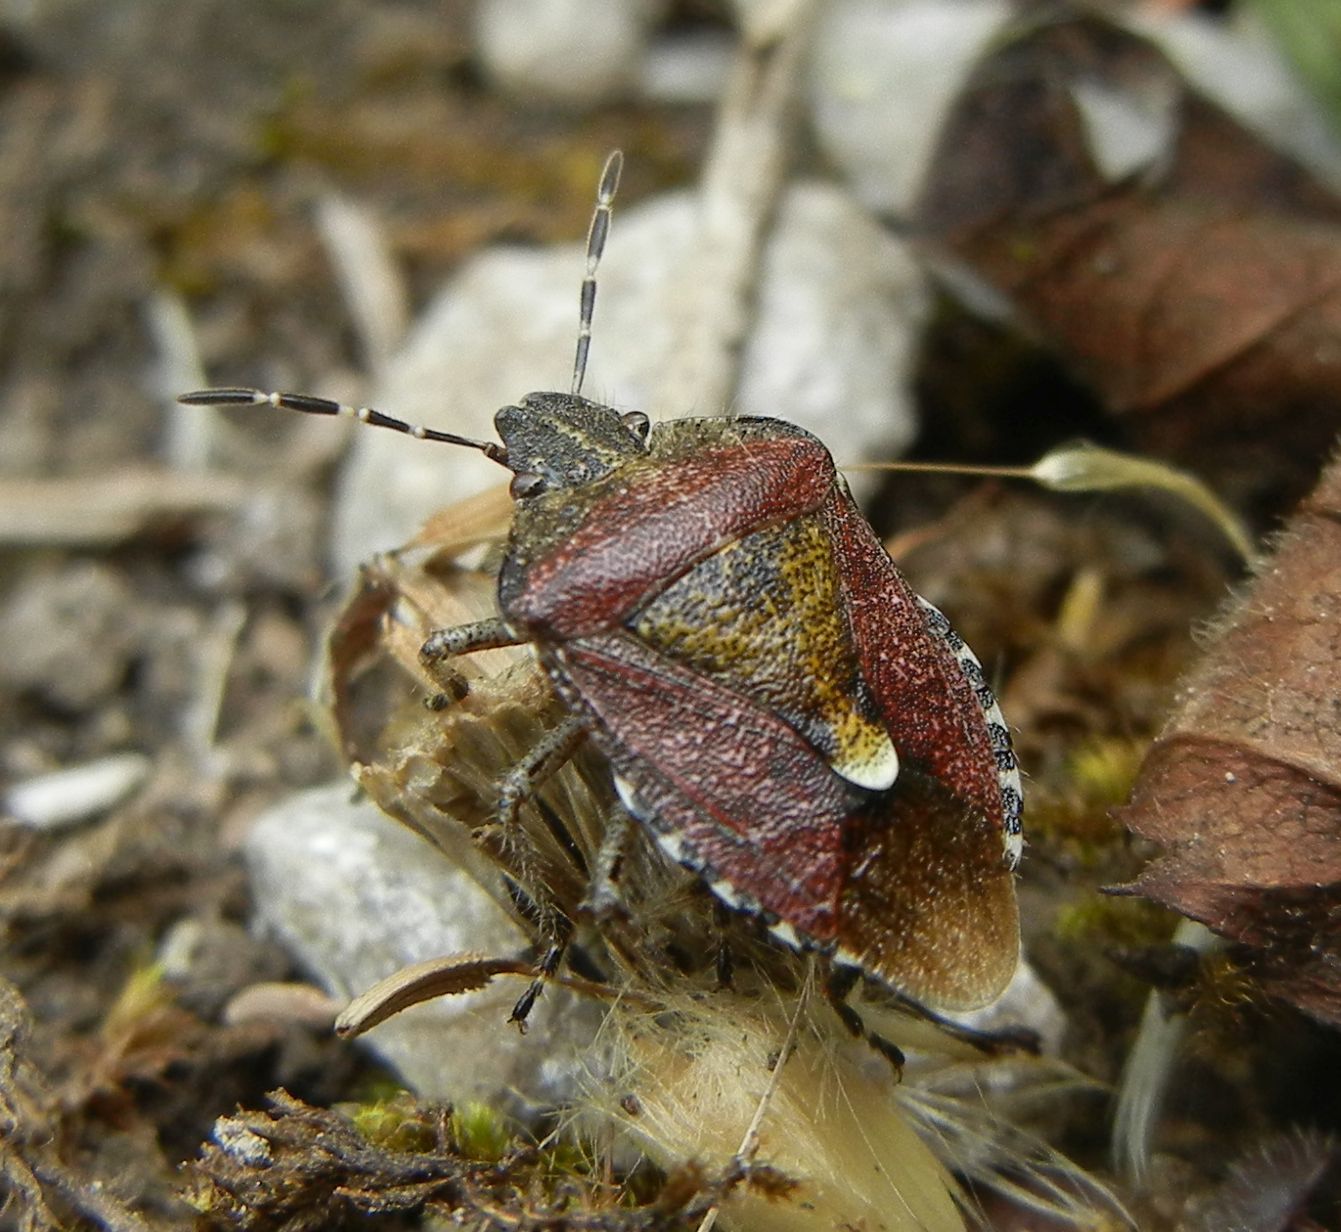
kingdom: Animalia
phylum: Arthropoda
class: Insecta
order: Hemiptera
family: Pentatomidae
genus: Dolycoris
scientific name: Dolycoris baccarum
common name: Sloe bug
